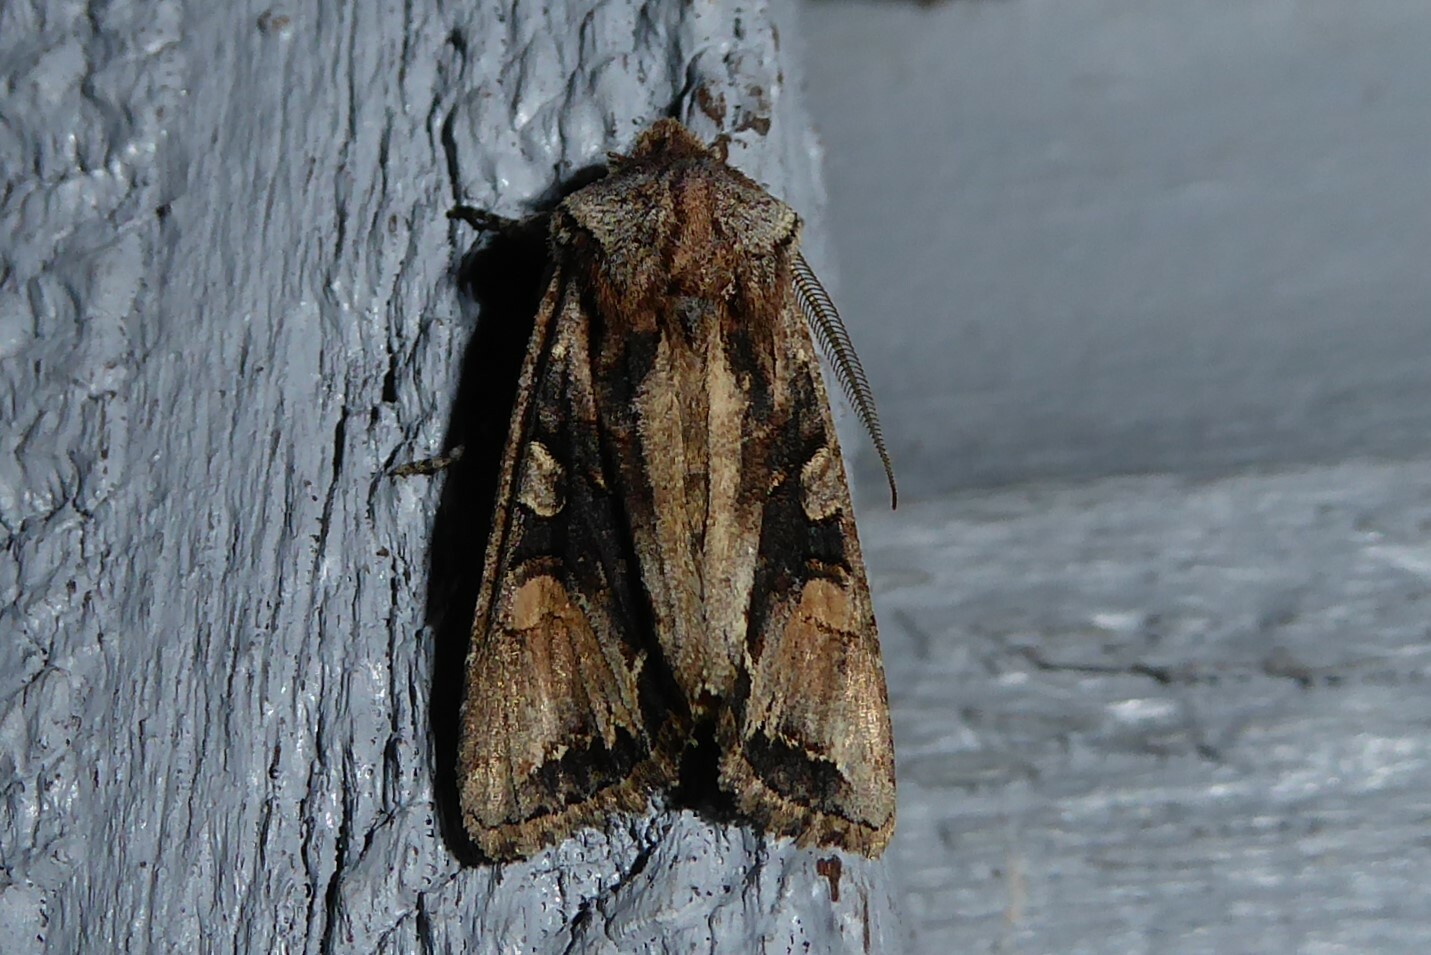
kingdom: Animalia
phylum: Arthropoda
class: Insecta
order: Lepidoptera
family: Noctuidae
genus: Ichneutica
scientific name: Ichneutica
